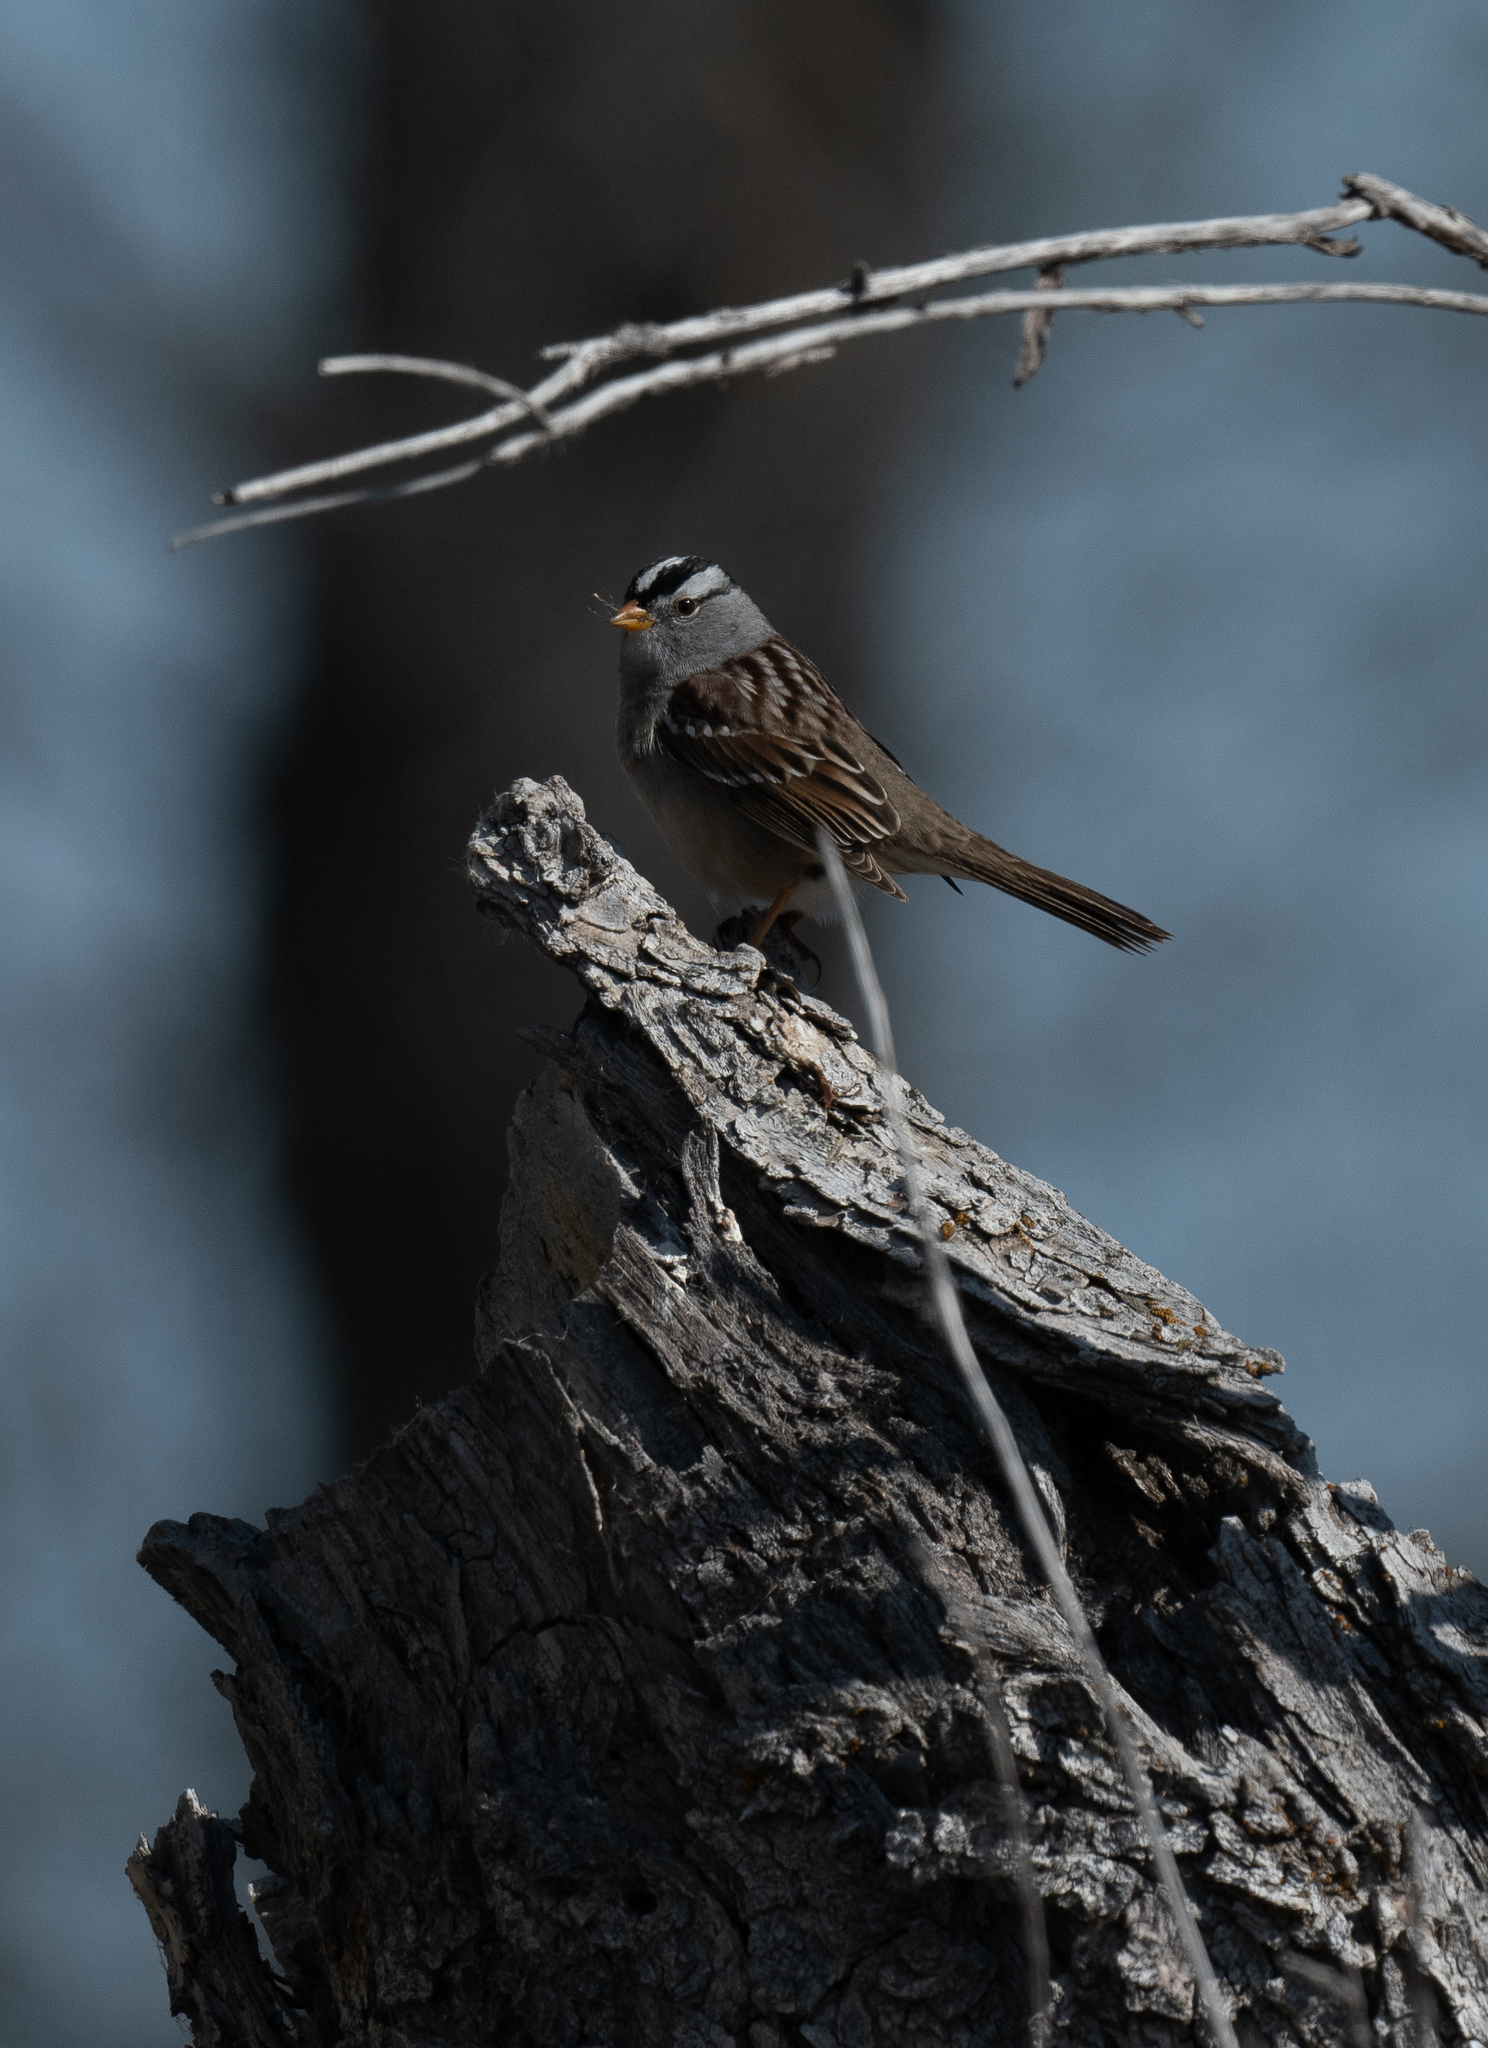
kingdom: Animalia
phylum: Chordata
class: Aves
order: Passeriformes
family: Passerellidae
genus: Zonotrichia
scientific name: Zonotrichia leucophrys
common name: White-crowned sparrow
